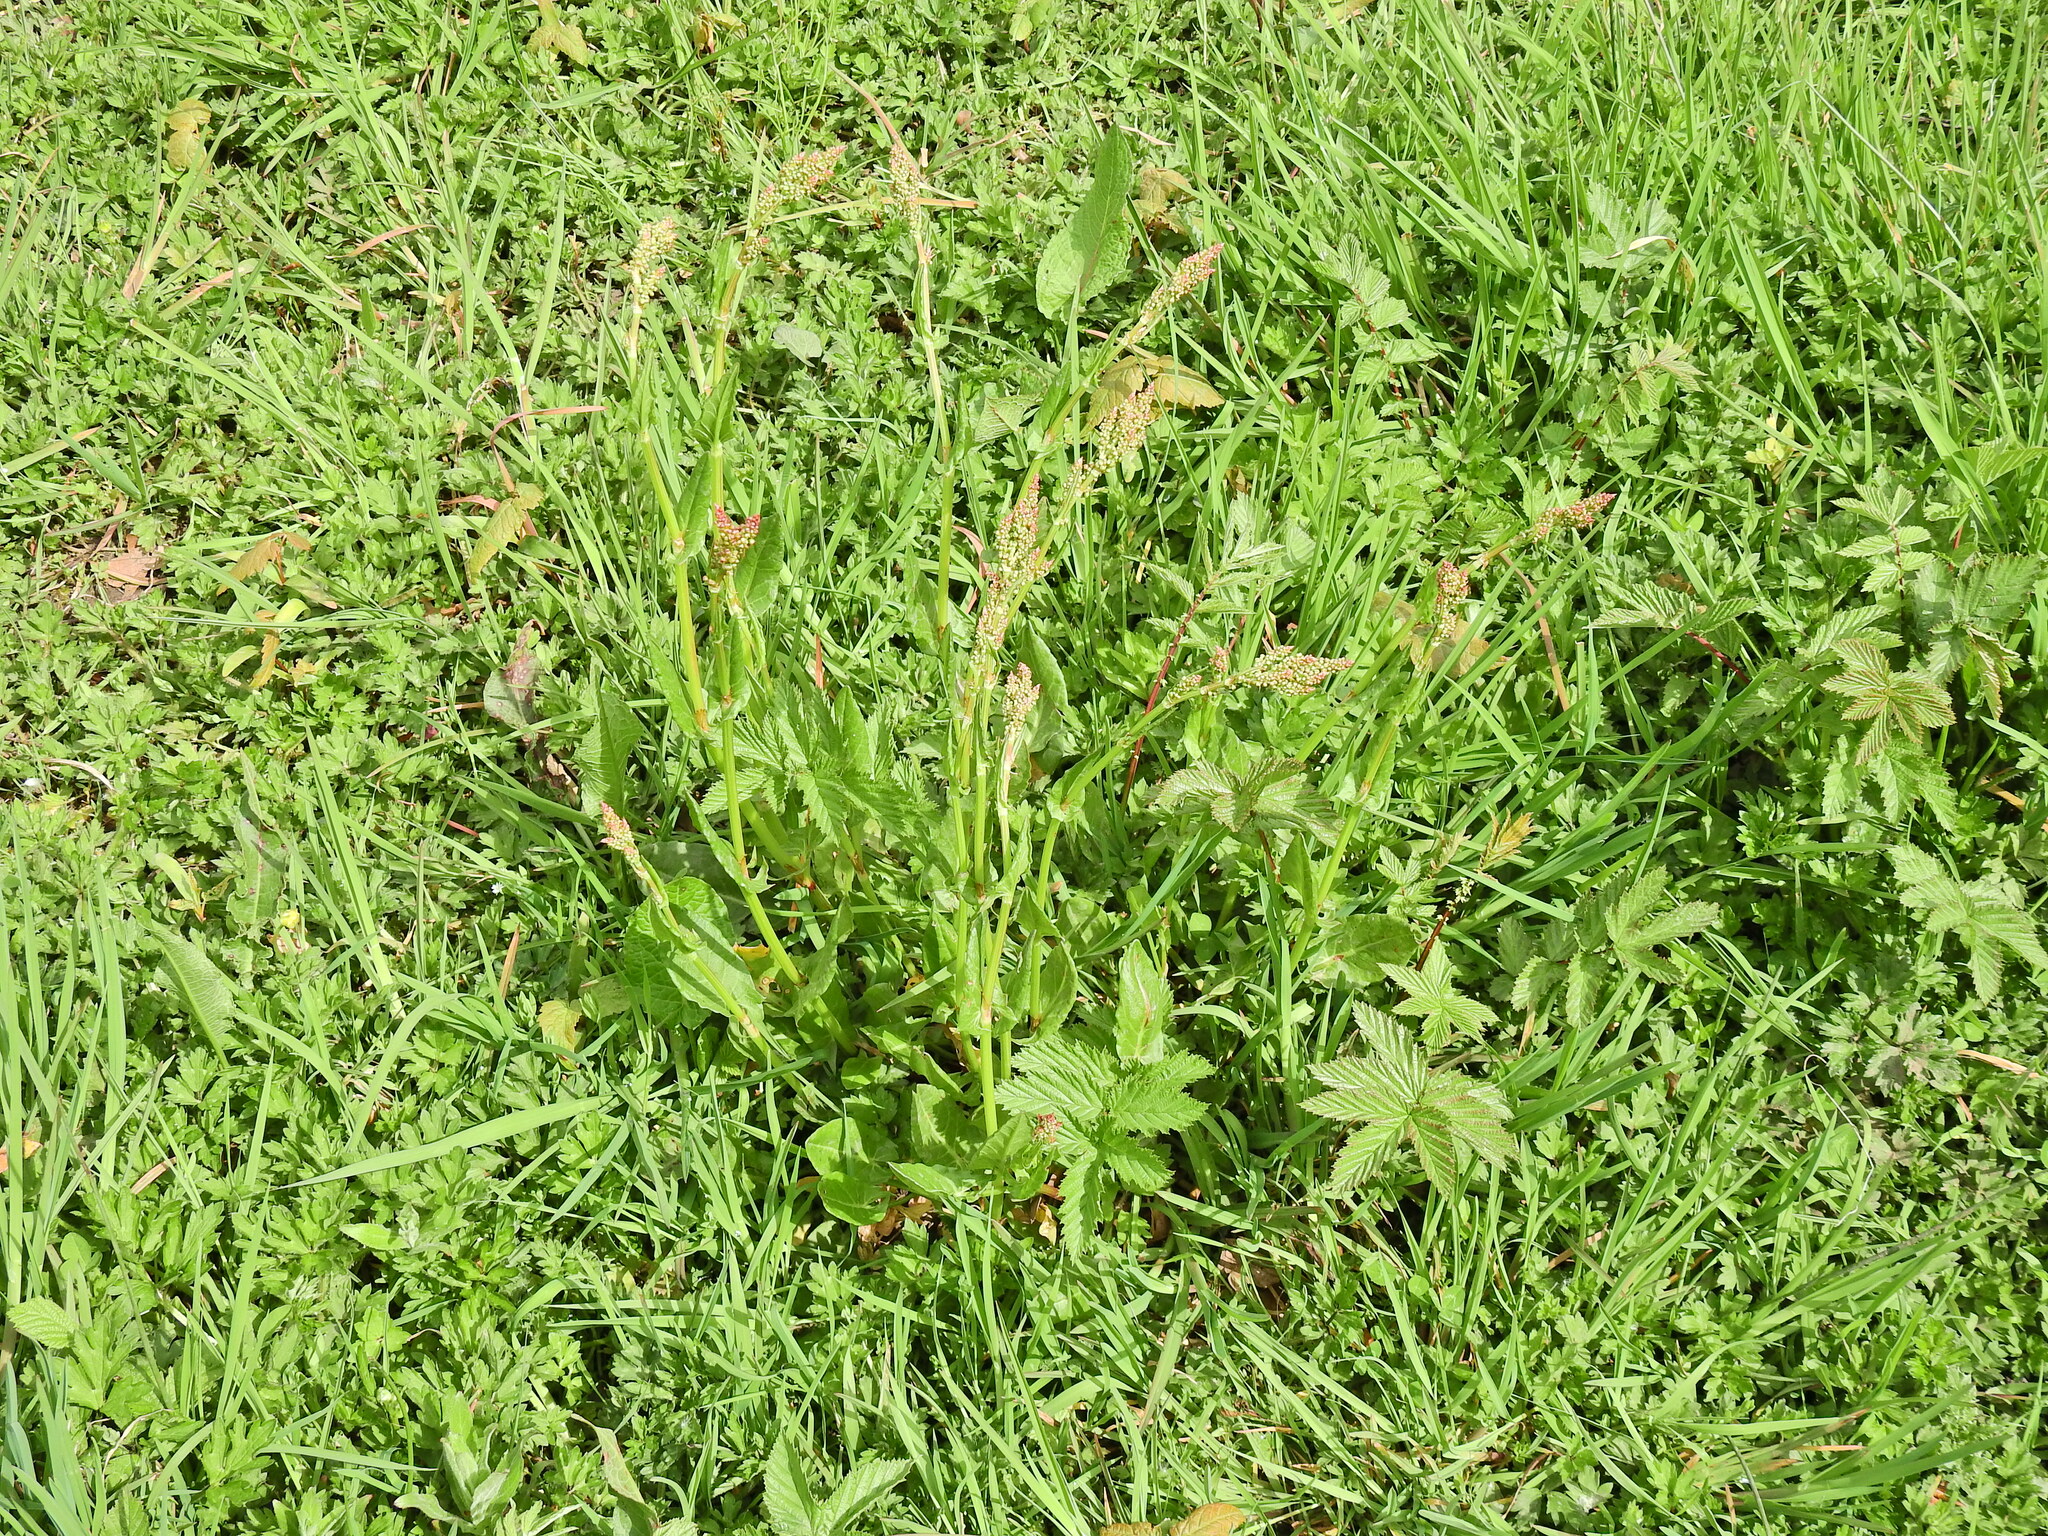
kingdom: Plantae
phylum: Tracheophyta
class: Magnoliopsida
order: Caryophyllales
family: Polygonaceae
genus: Rumex
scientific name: Rumex acetosa
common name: Garden sorrel
